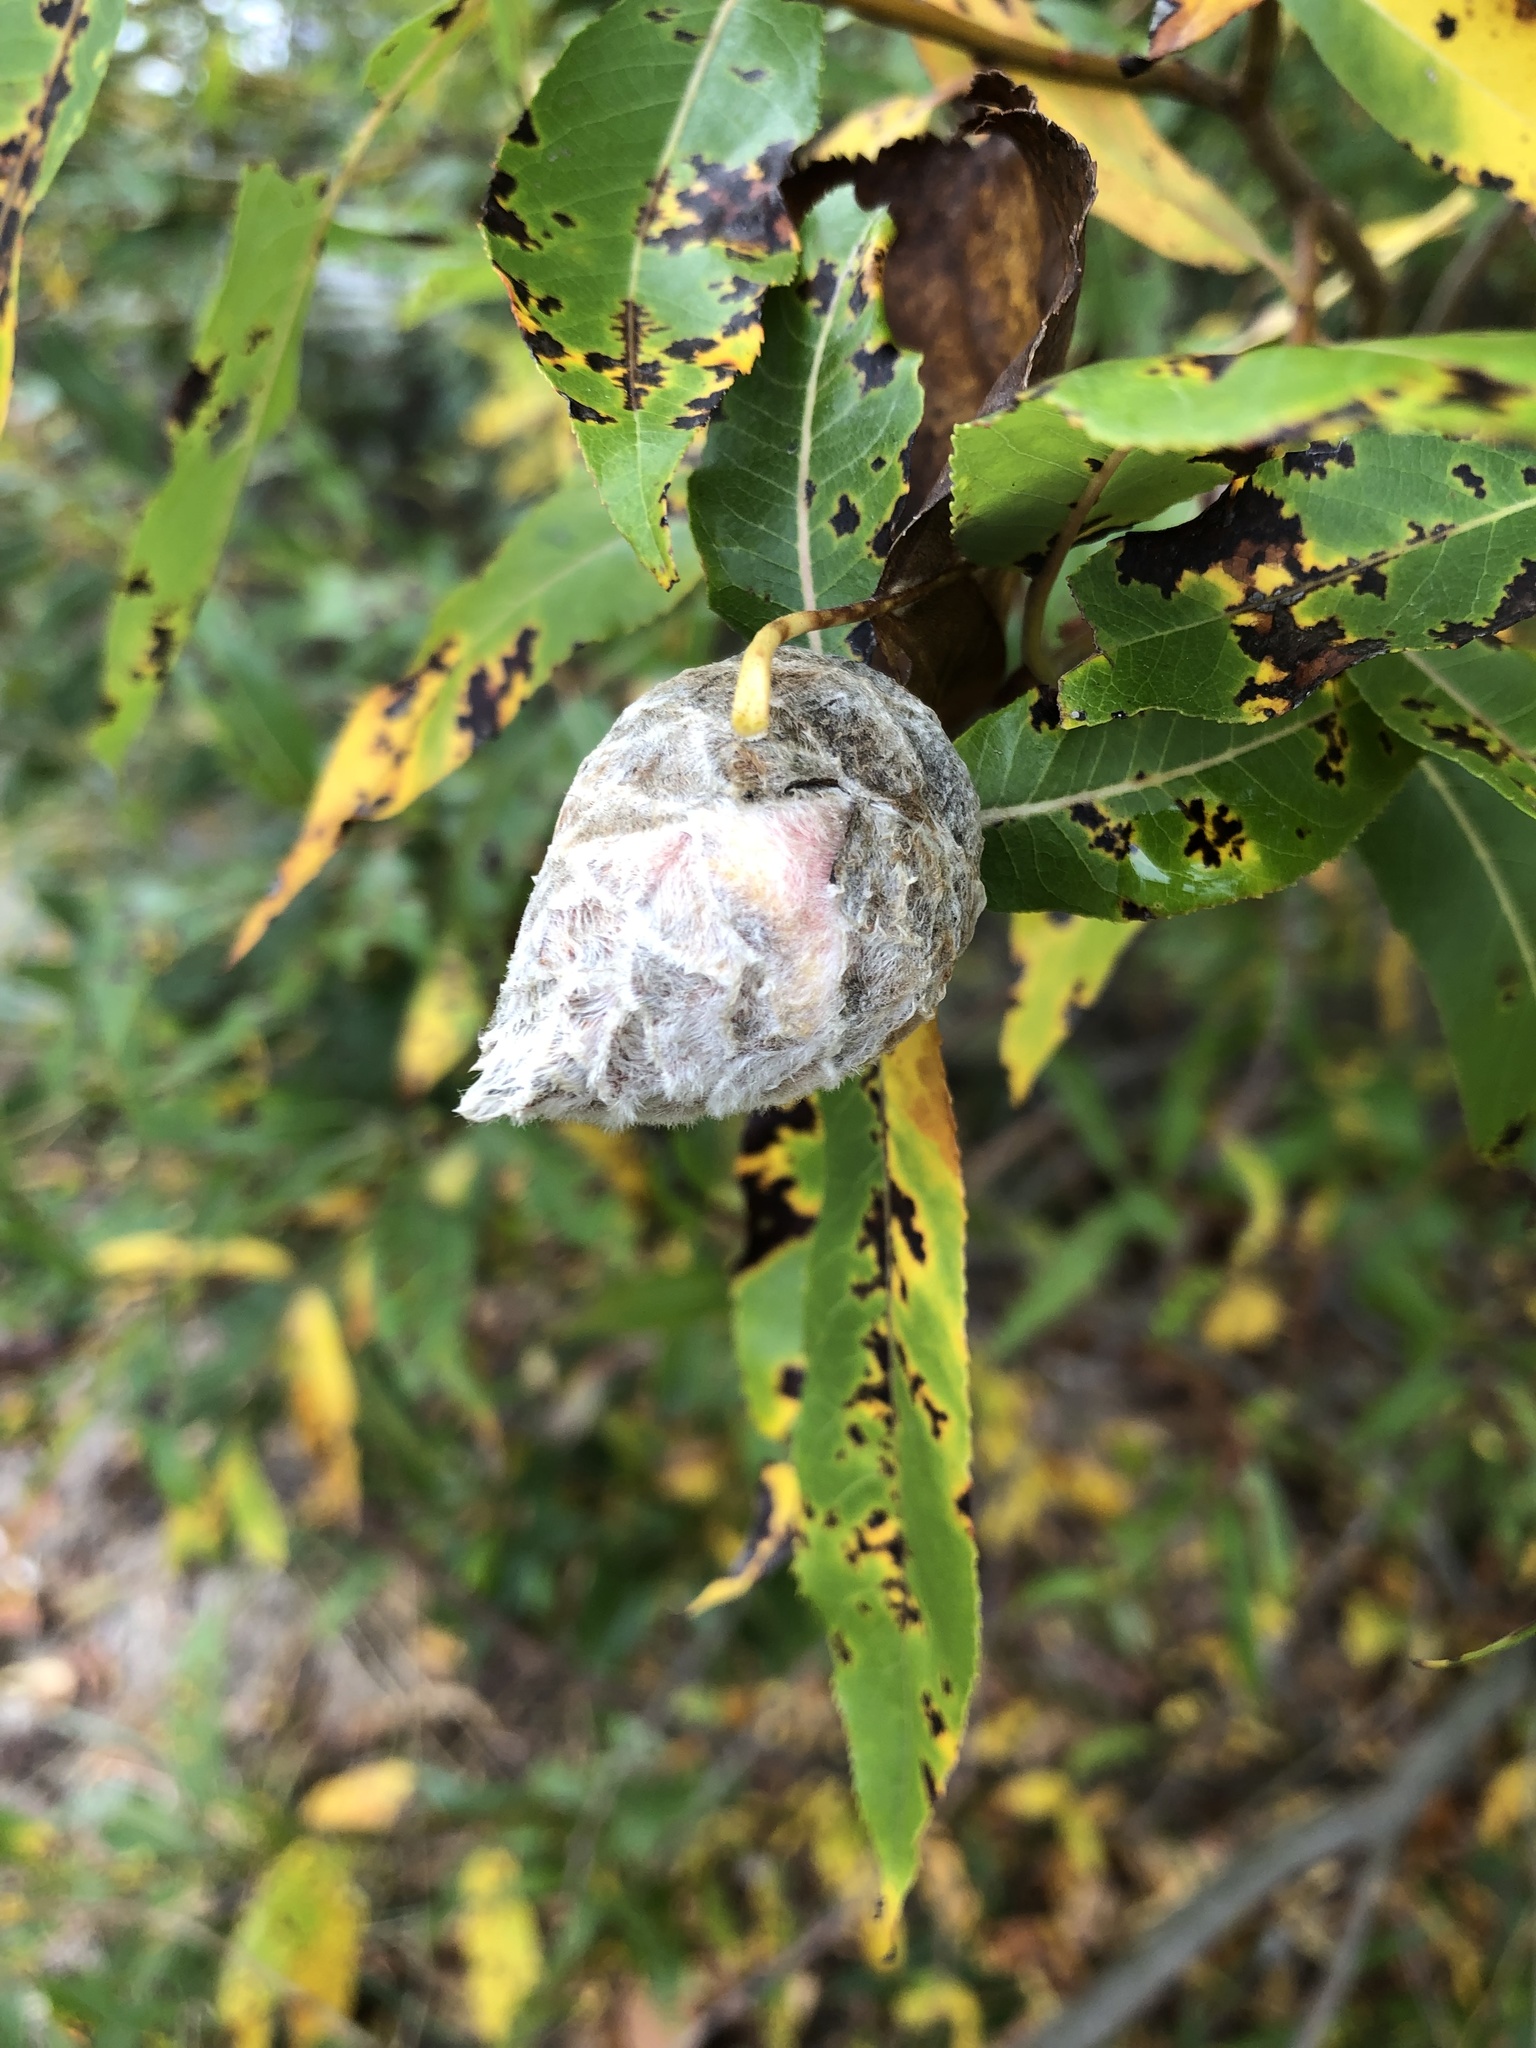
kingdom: Animalia
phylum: Arthropoda
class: Insecta
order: Diptera
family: Cecidomyiidae
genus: Rabdophaga
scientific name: Rabdophaga strobiloides
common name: Willow pinecone gall midge
